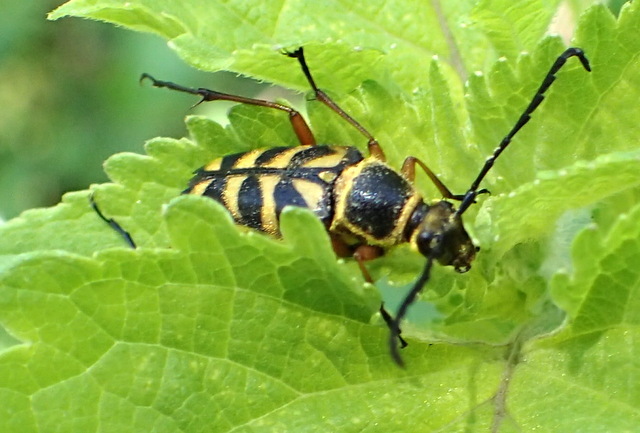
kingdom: Animalia
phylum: Arthropoda
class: Insecta
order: Coleoptera
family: Cerambycidae
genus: Typocerus
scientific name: Typocerus zebra
